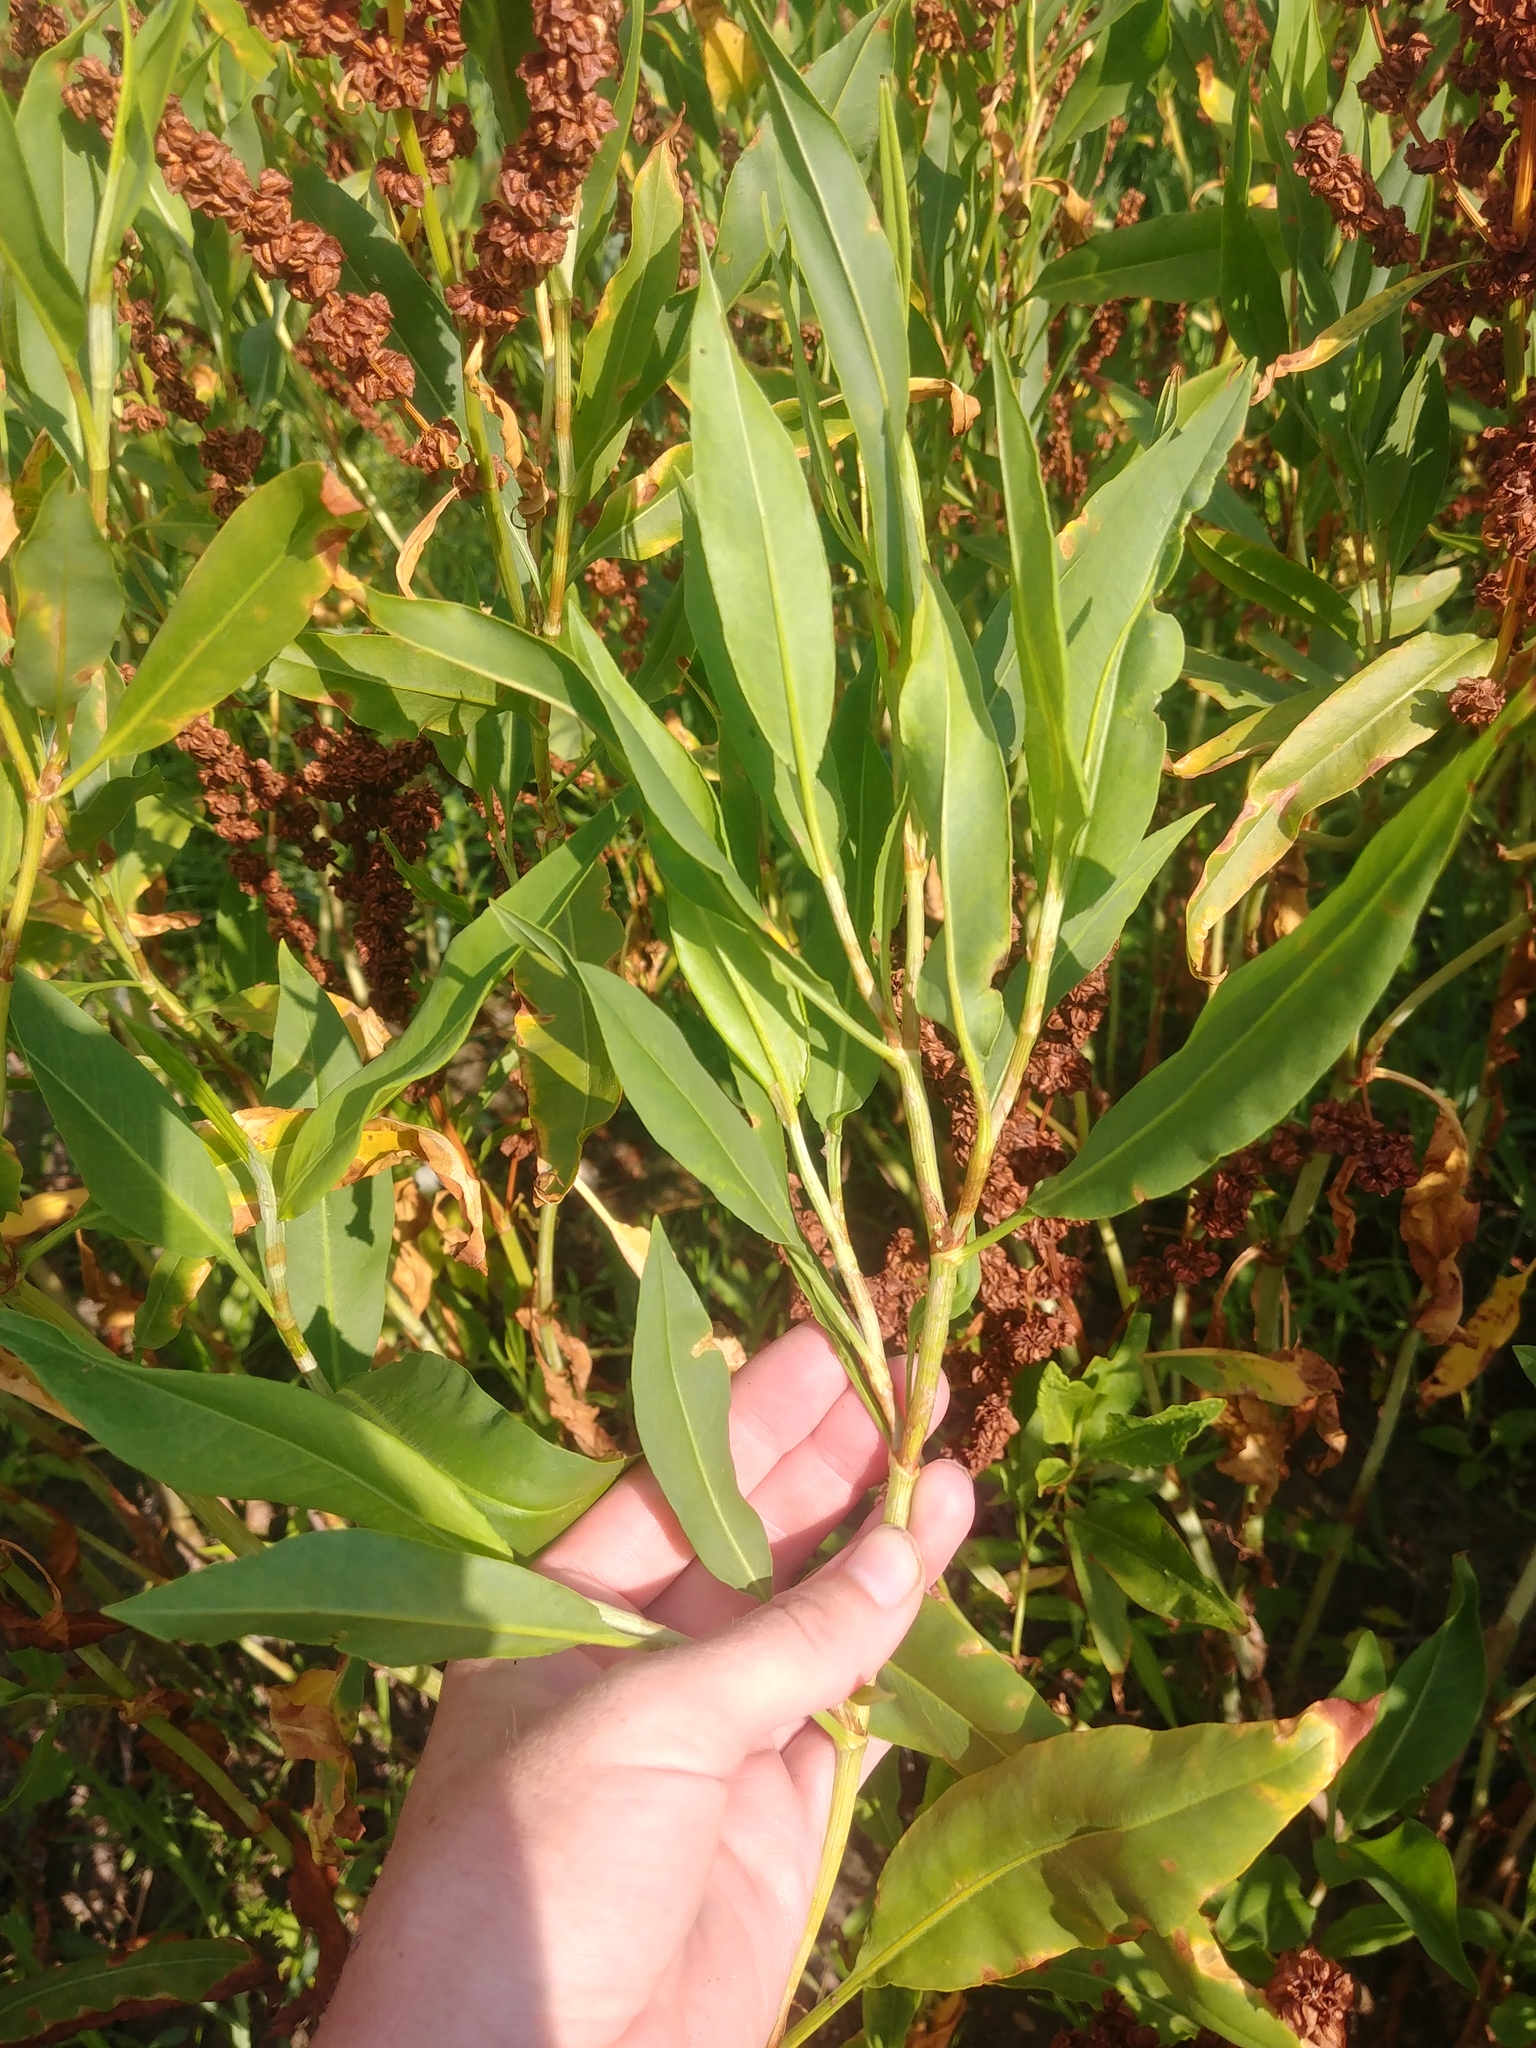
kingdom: Plantae
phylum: Tracheophyta
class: Magnoliopsida
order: Caryophyllales
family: Polygonaceae
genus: Rumex
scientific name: Rumex altissimus
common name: Smooth dock
